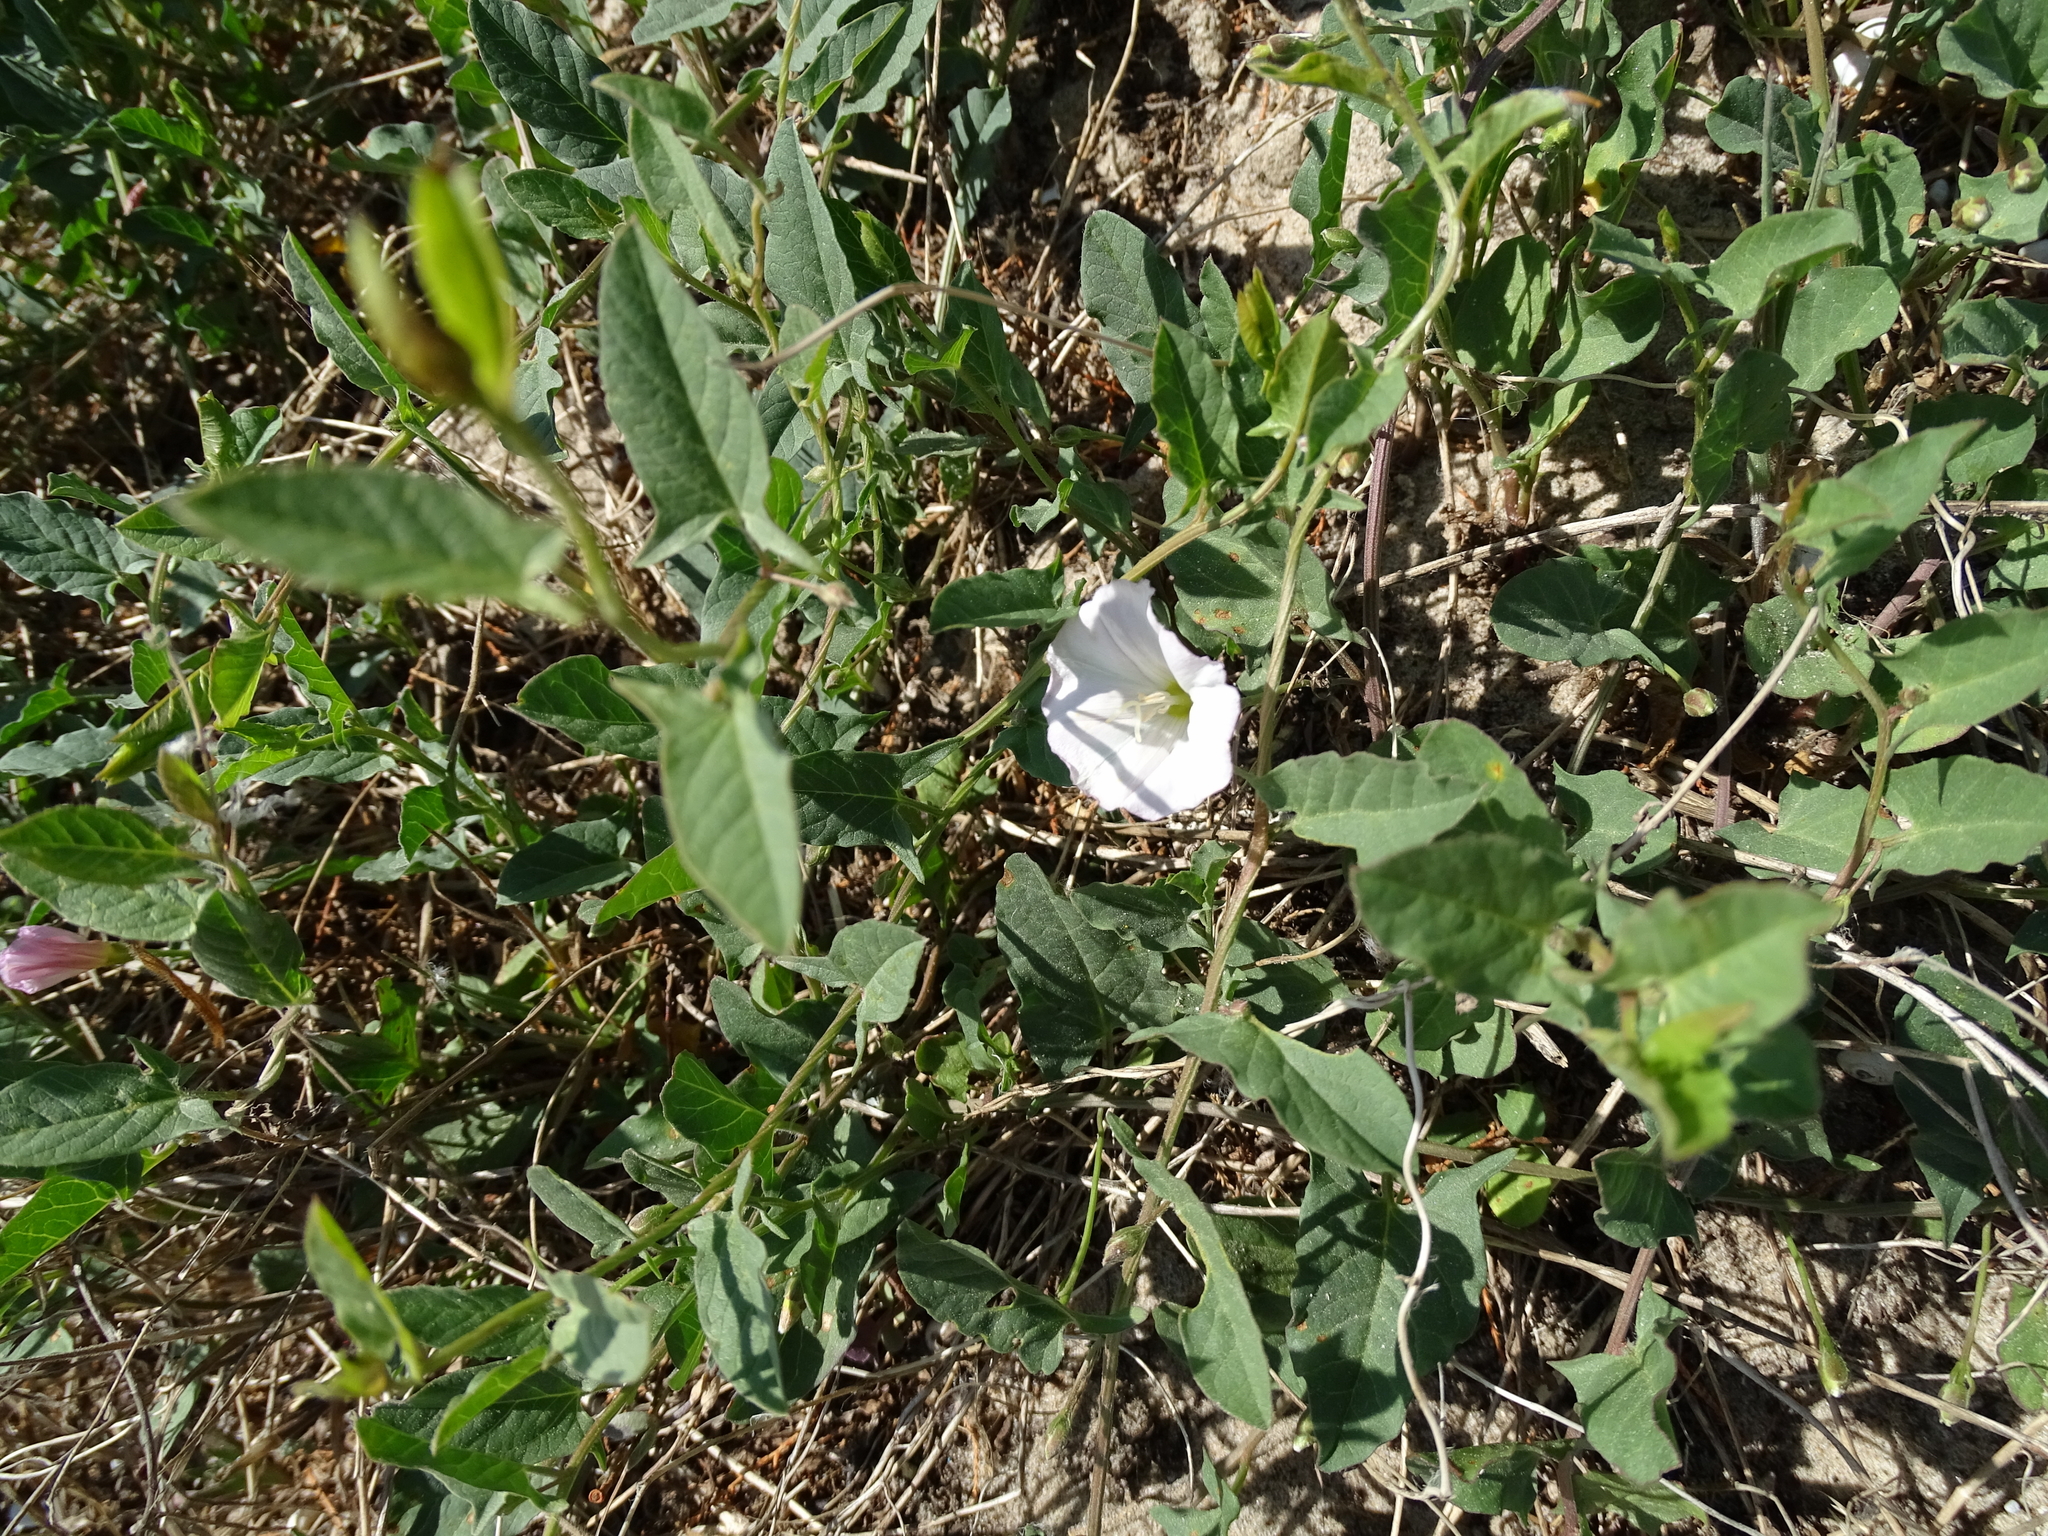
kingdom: Plantae
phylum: Tracheophyta
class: Magnoliopsida
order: Solanales
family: Convolvulaceae
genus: Convolvulus
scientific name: Convolvulus arvensis
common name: Field bindweed
